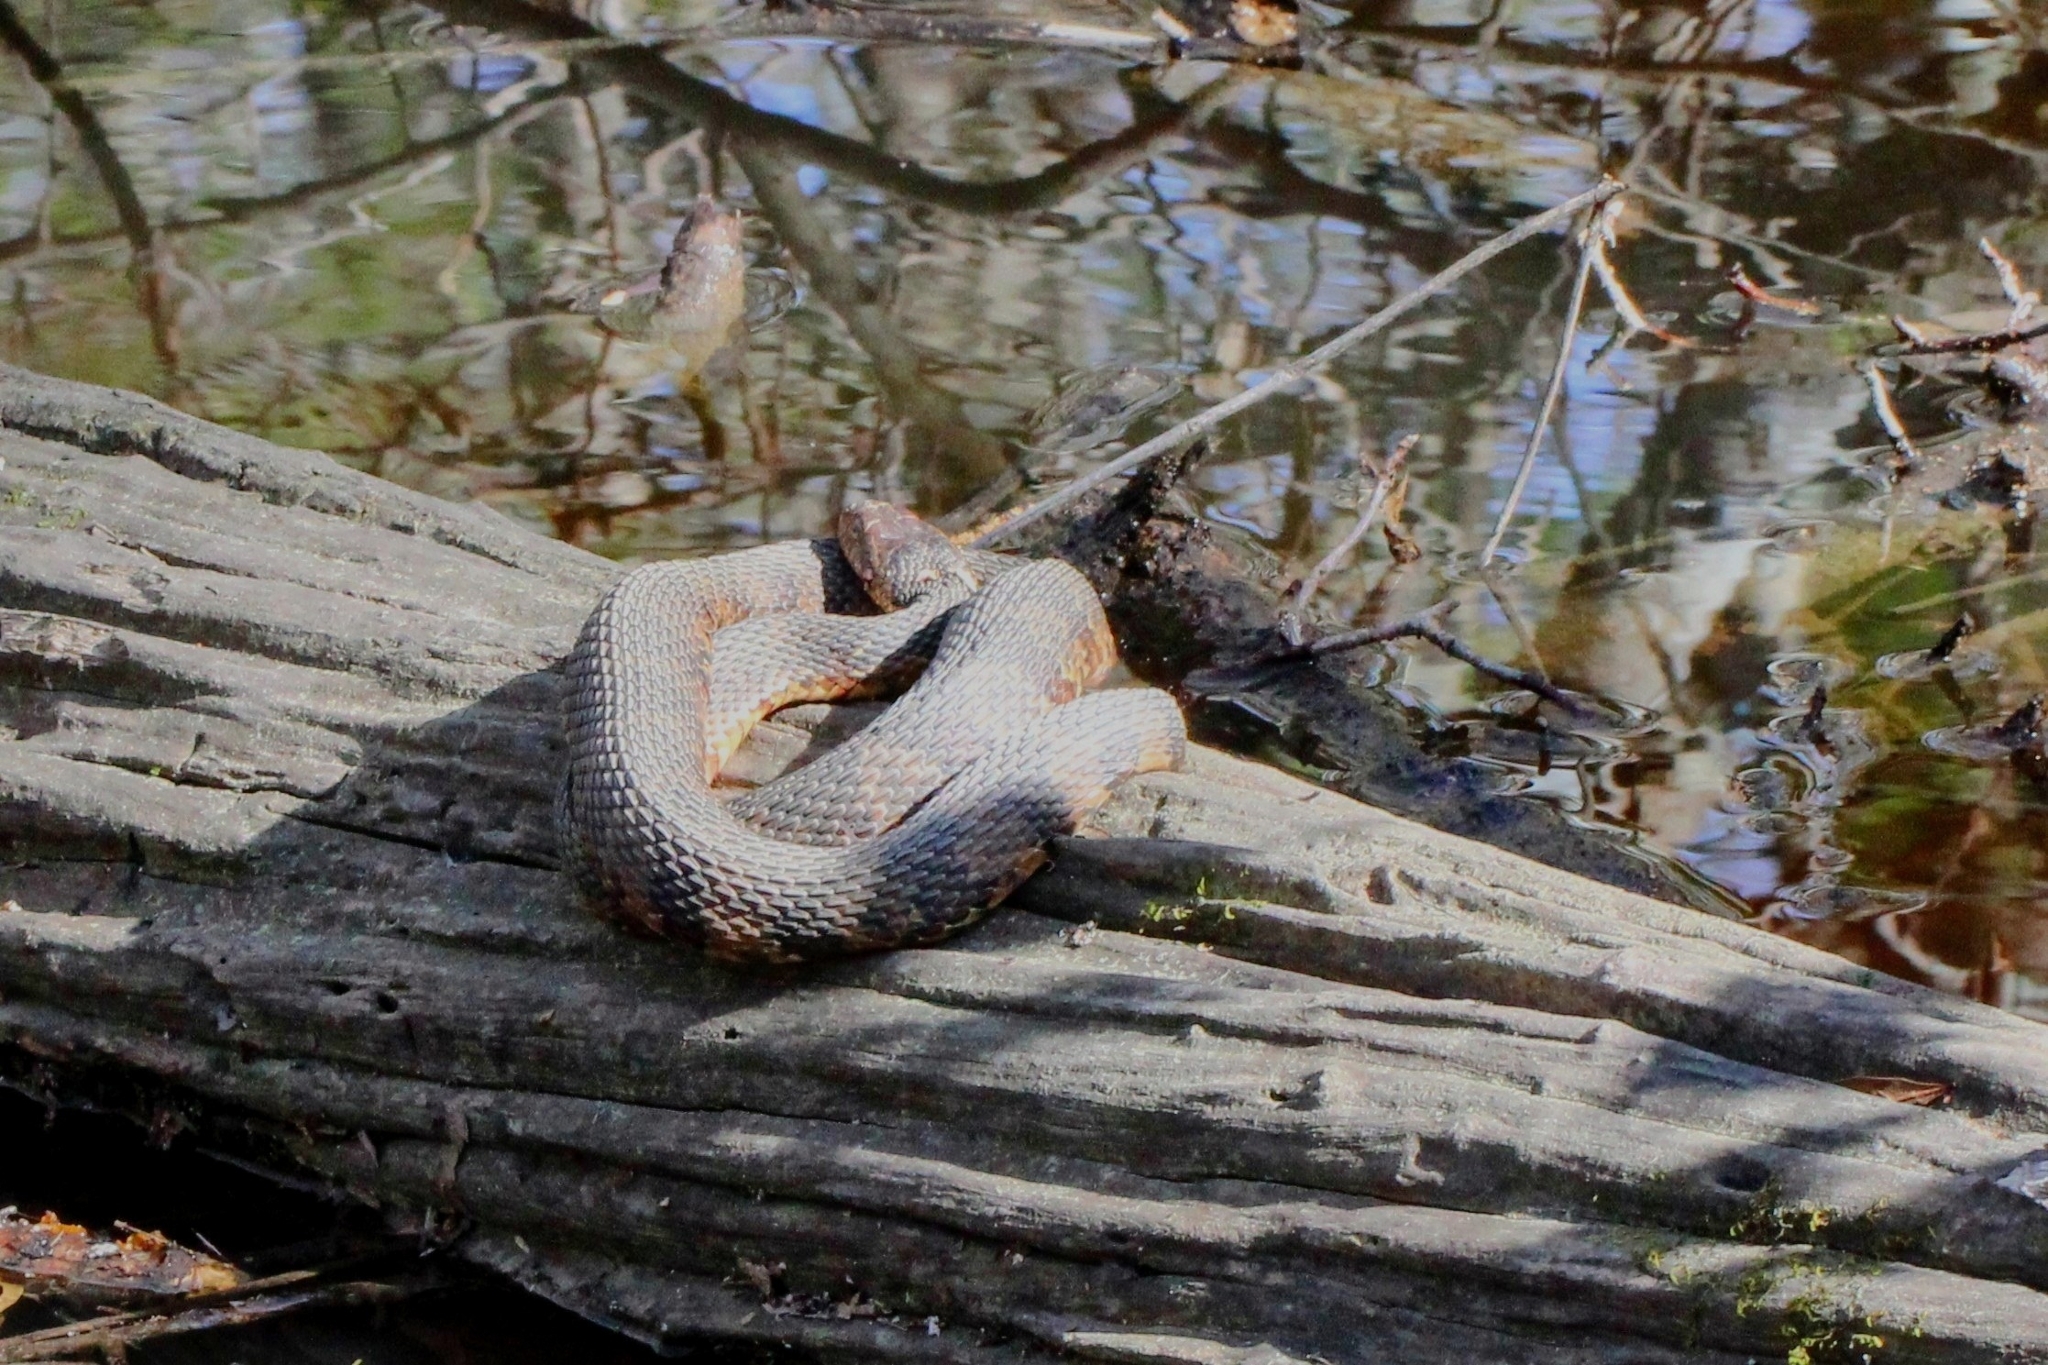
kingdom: Animalia
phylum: Chordata
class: Squamata
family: Colubridae
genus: Nerodia
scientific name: Nerodia fasciata
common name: Southern water snake
